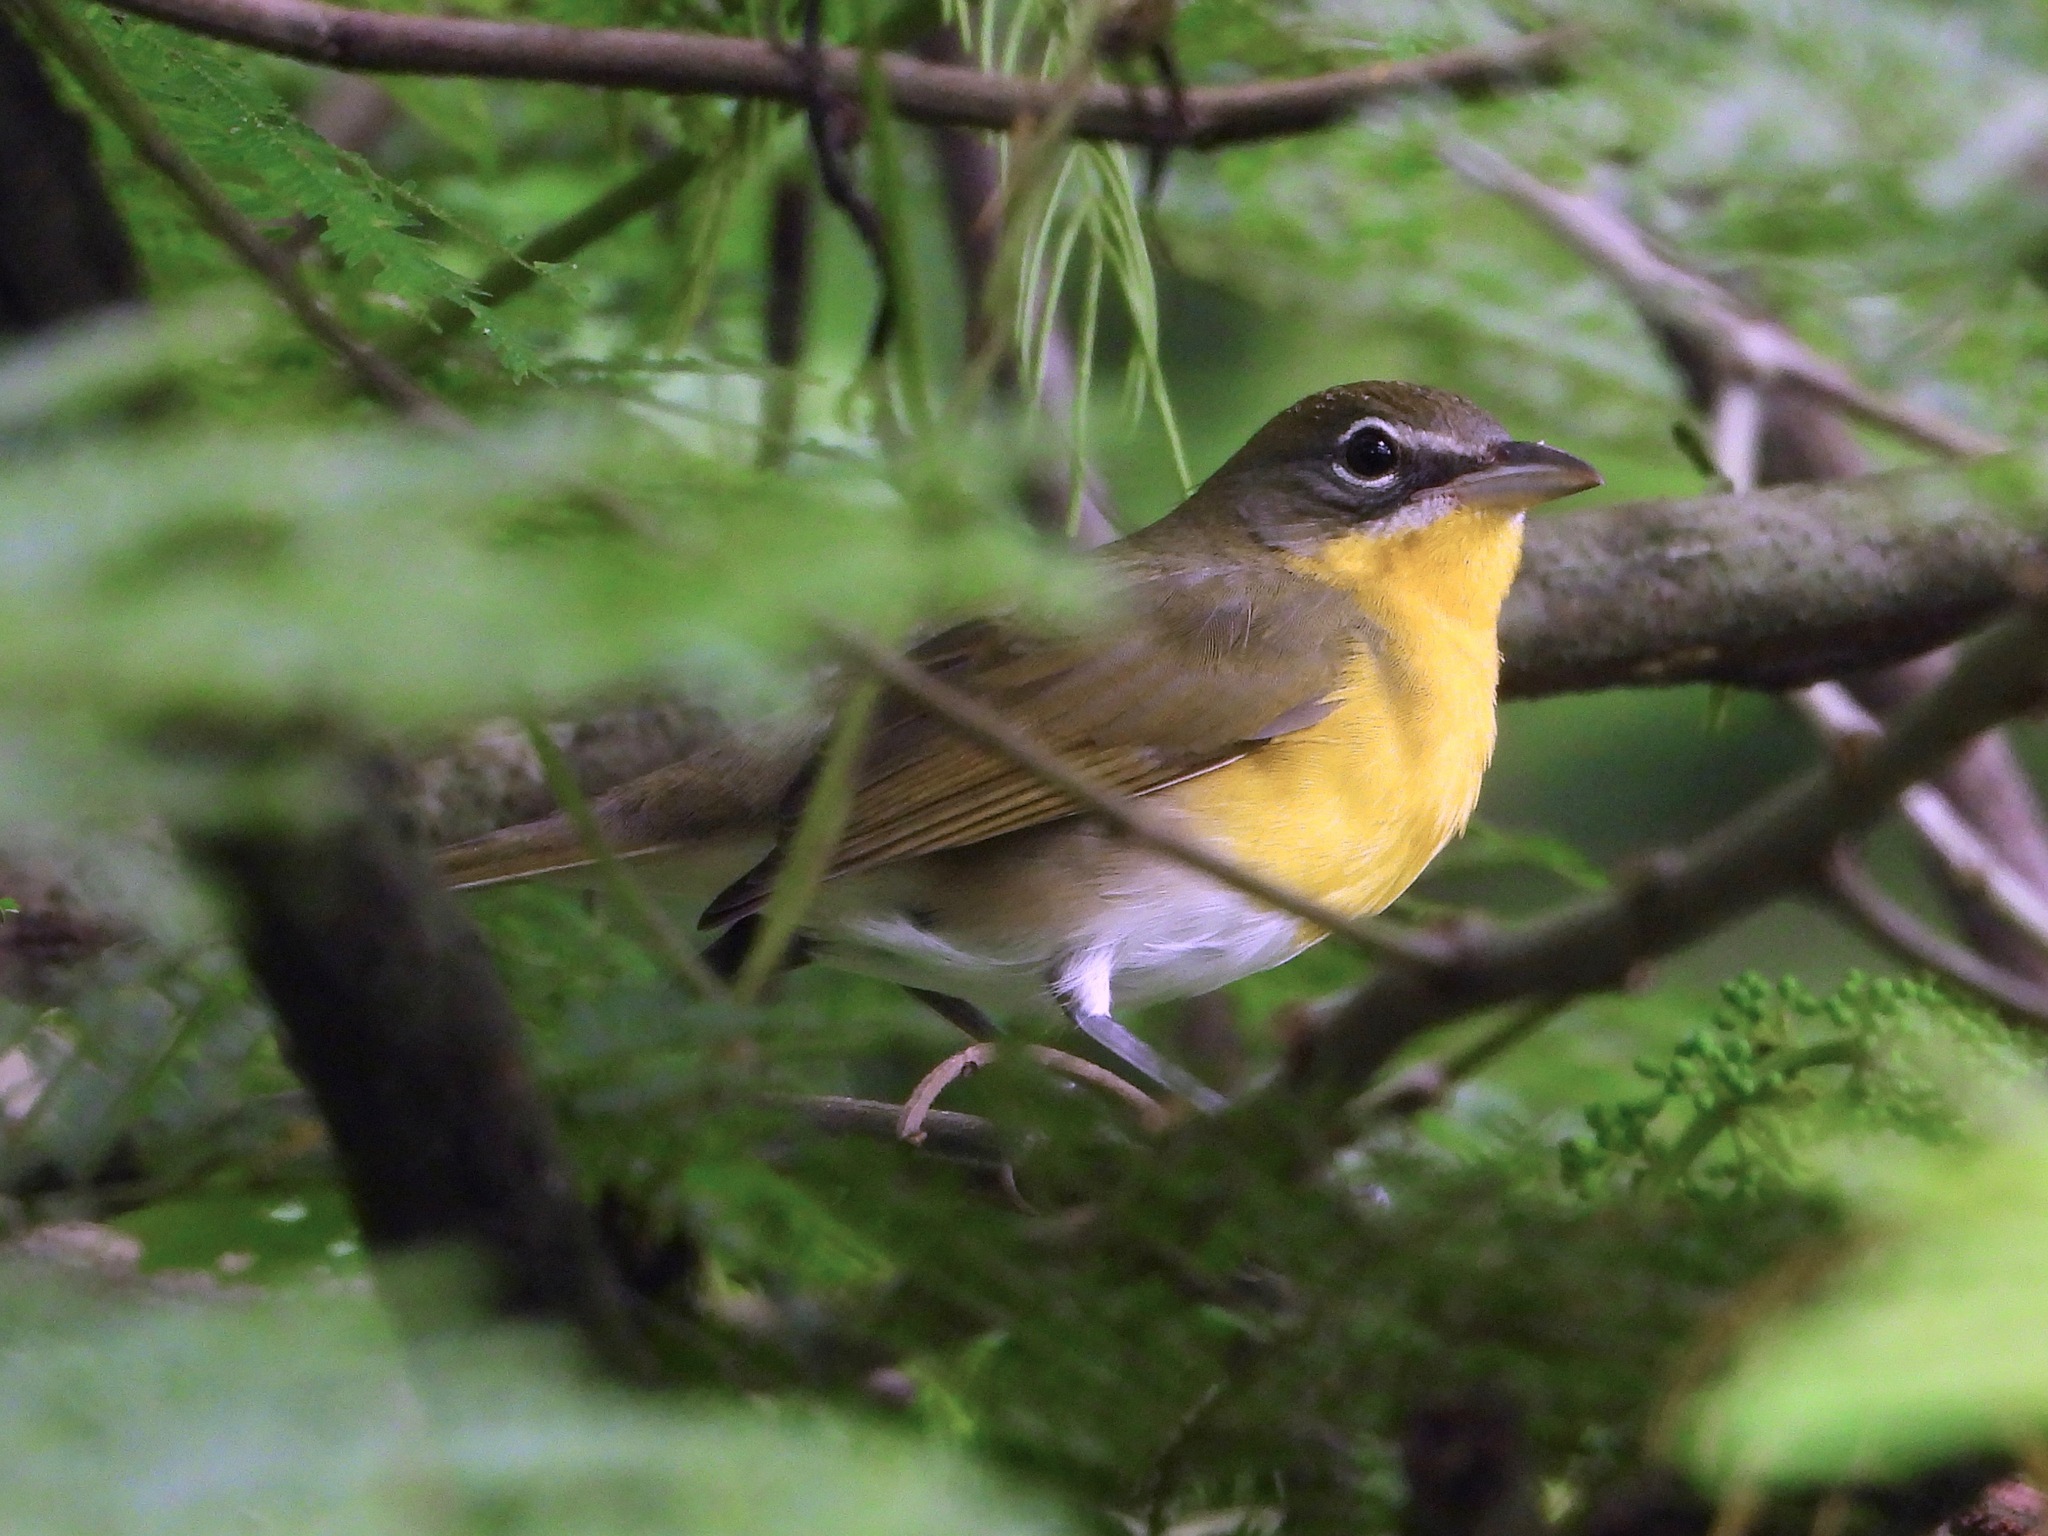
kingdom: Animalia
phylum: Chordata
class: Aves
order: Passeriformes
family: Parulidae
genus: Icteria
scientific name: Icteria virens
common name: Yellow-breasted chat
